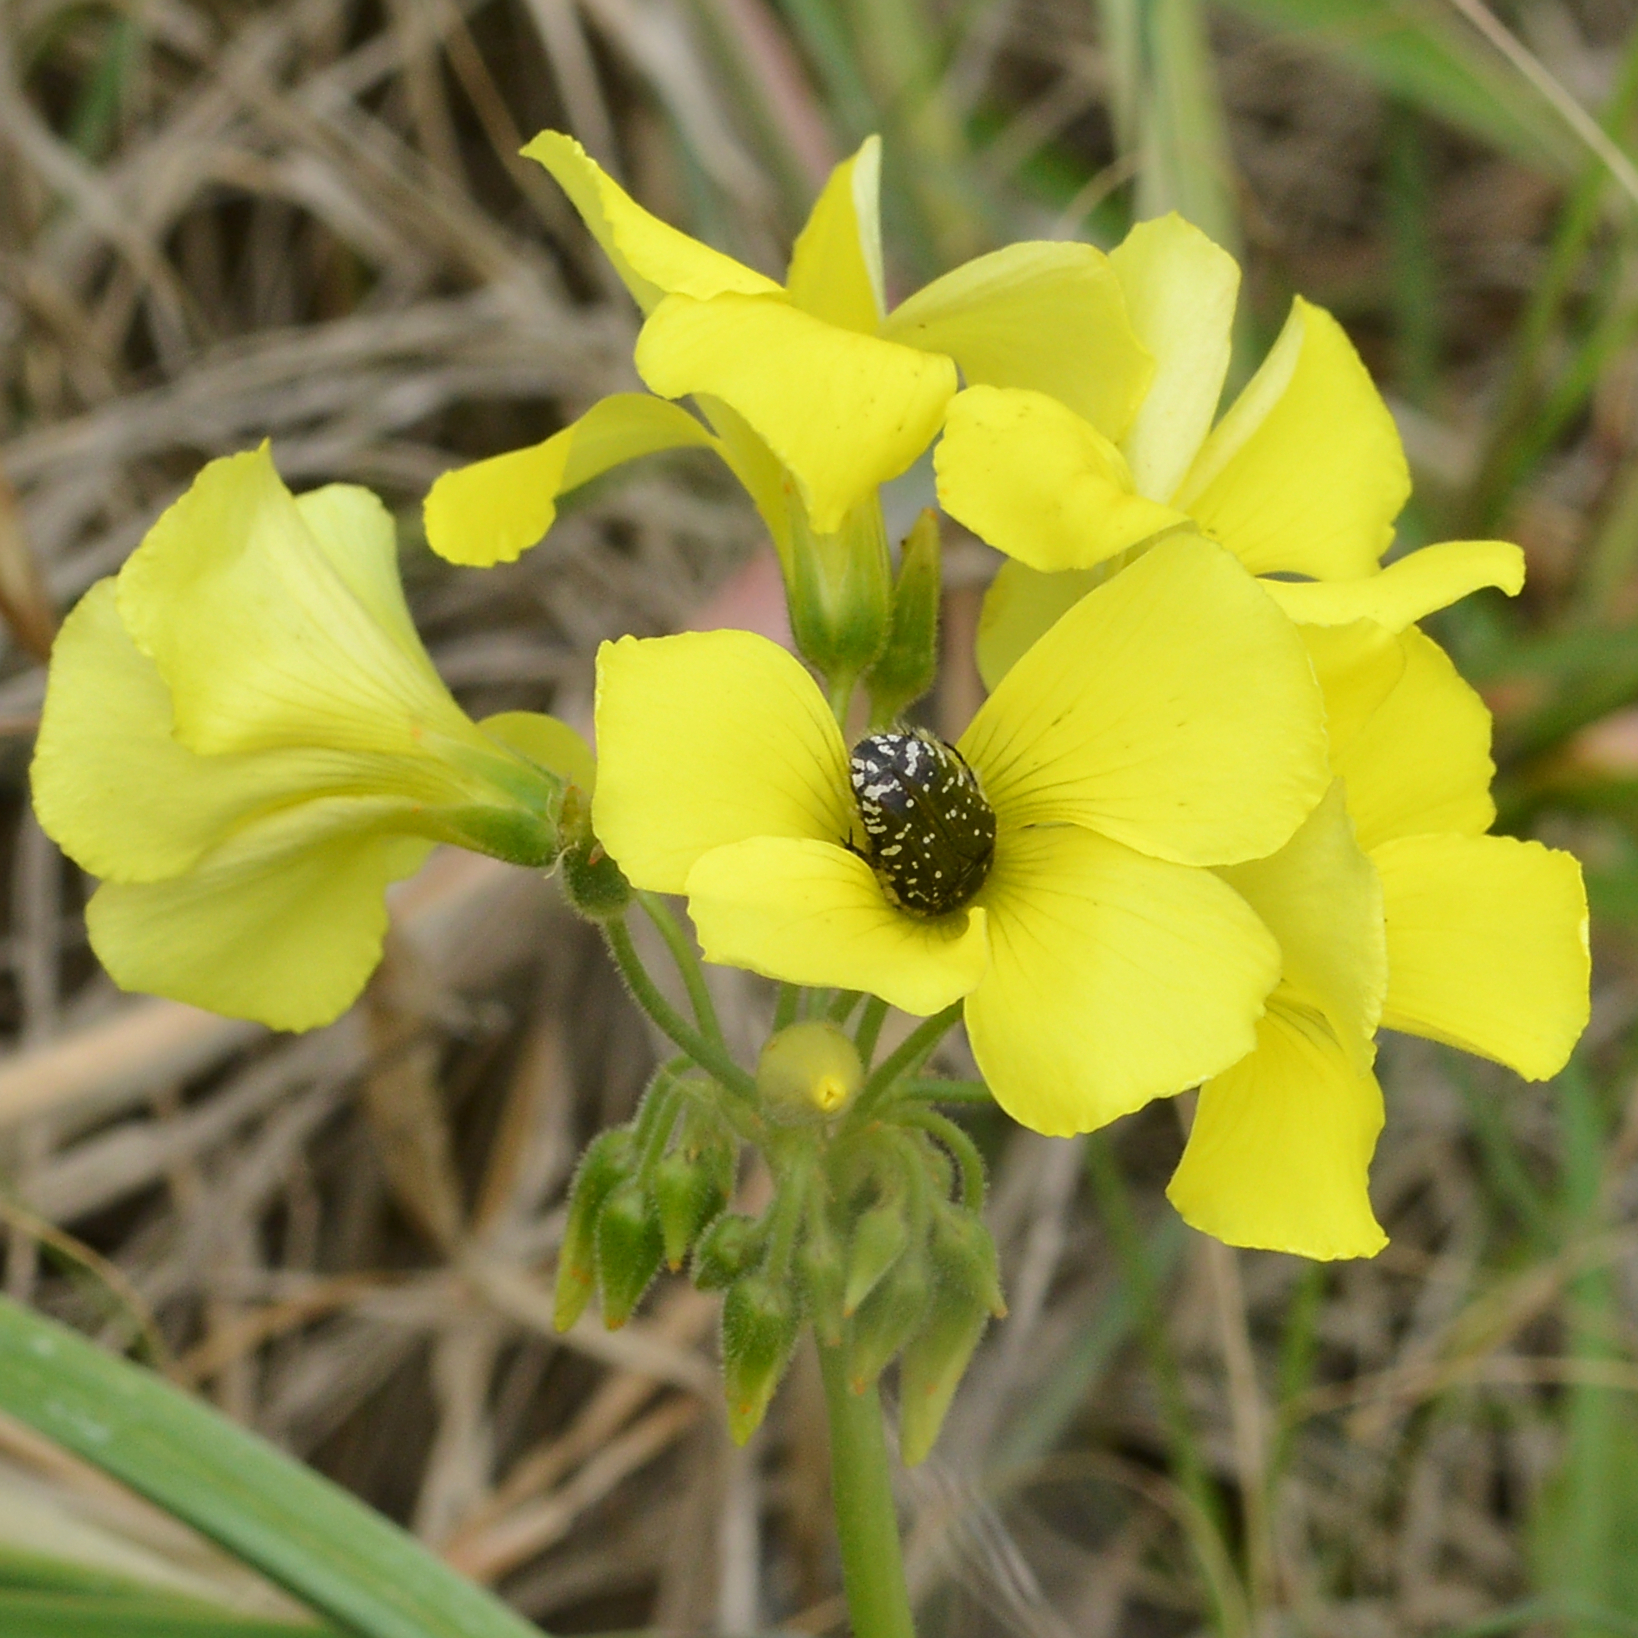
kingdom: Animalia
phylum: Arthropoda
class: Insecta
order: Coleoptera
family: Scarabaeidae
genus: Oxythyrea
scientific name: Oxythyrea funesta
